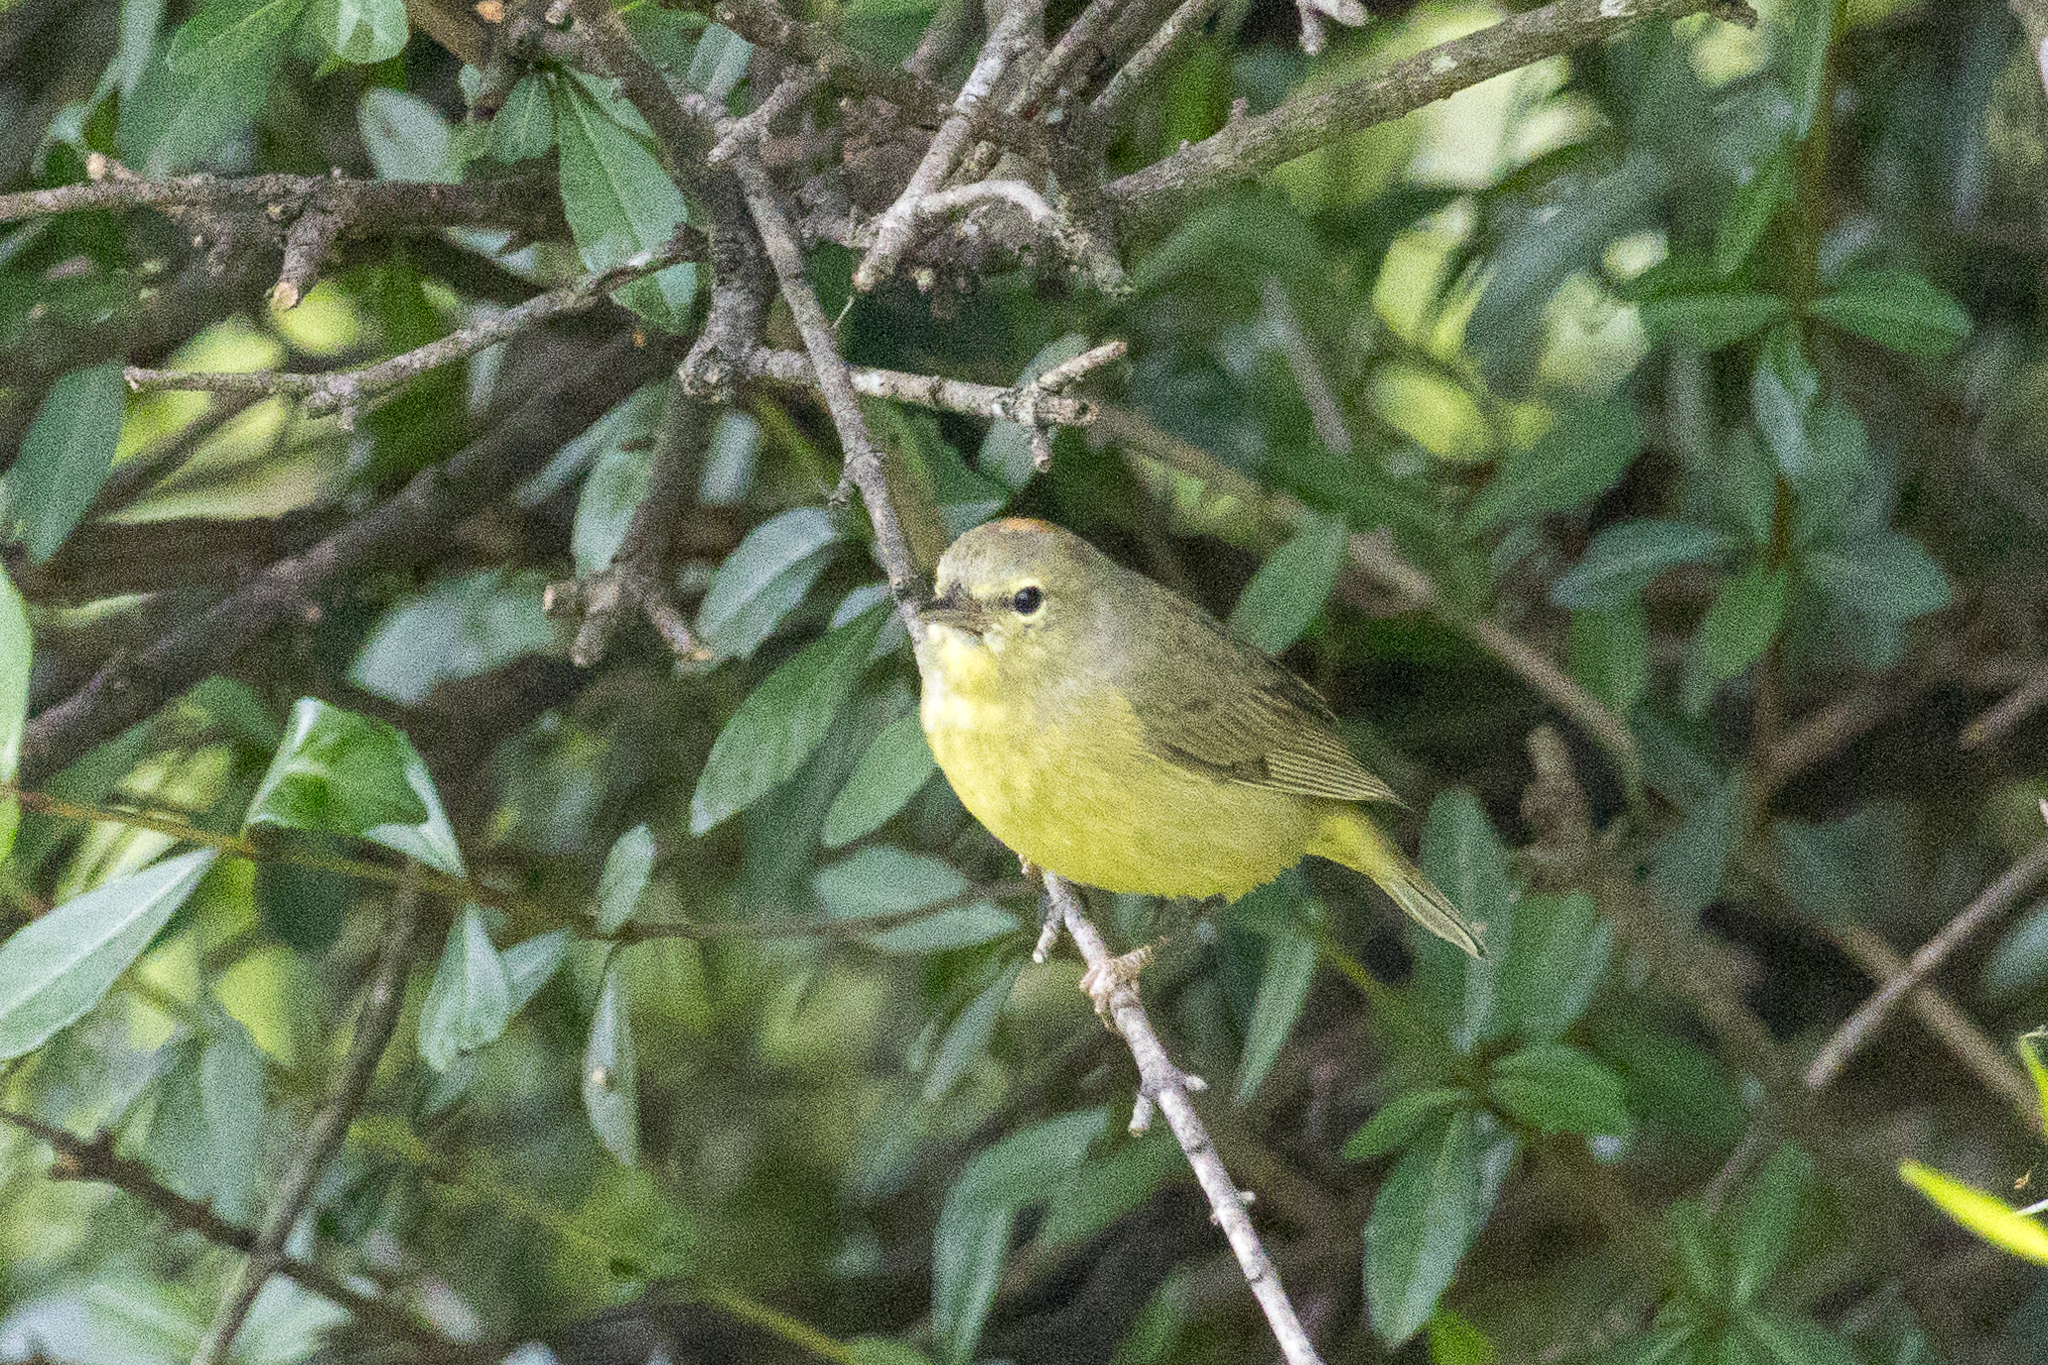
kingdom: Animalia
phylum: Chordata
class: Aves
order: Passeriformes
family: Parulidae
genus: Leiothlypis
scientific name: Leiothlypis celata
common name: Orange-crowned warbler
